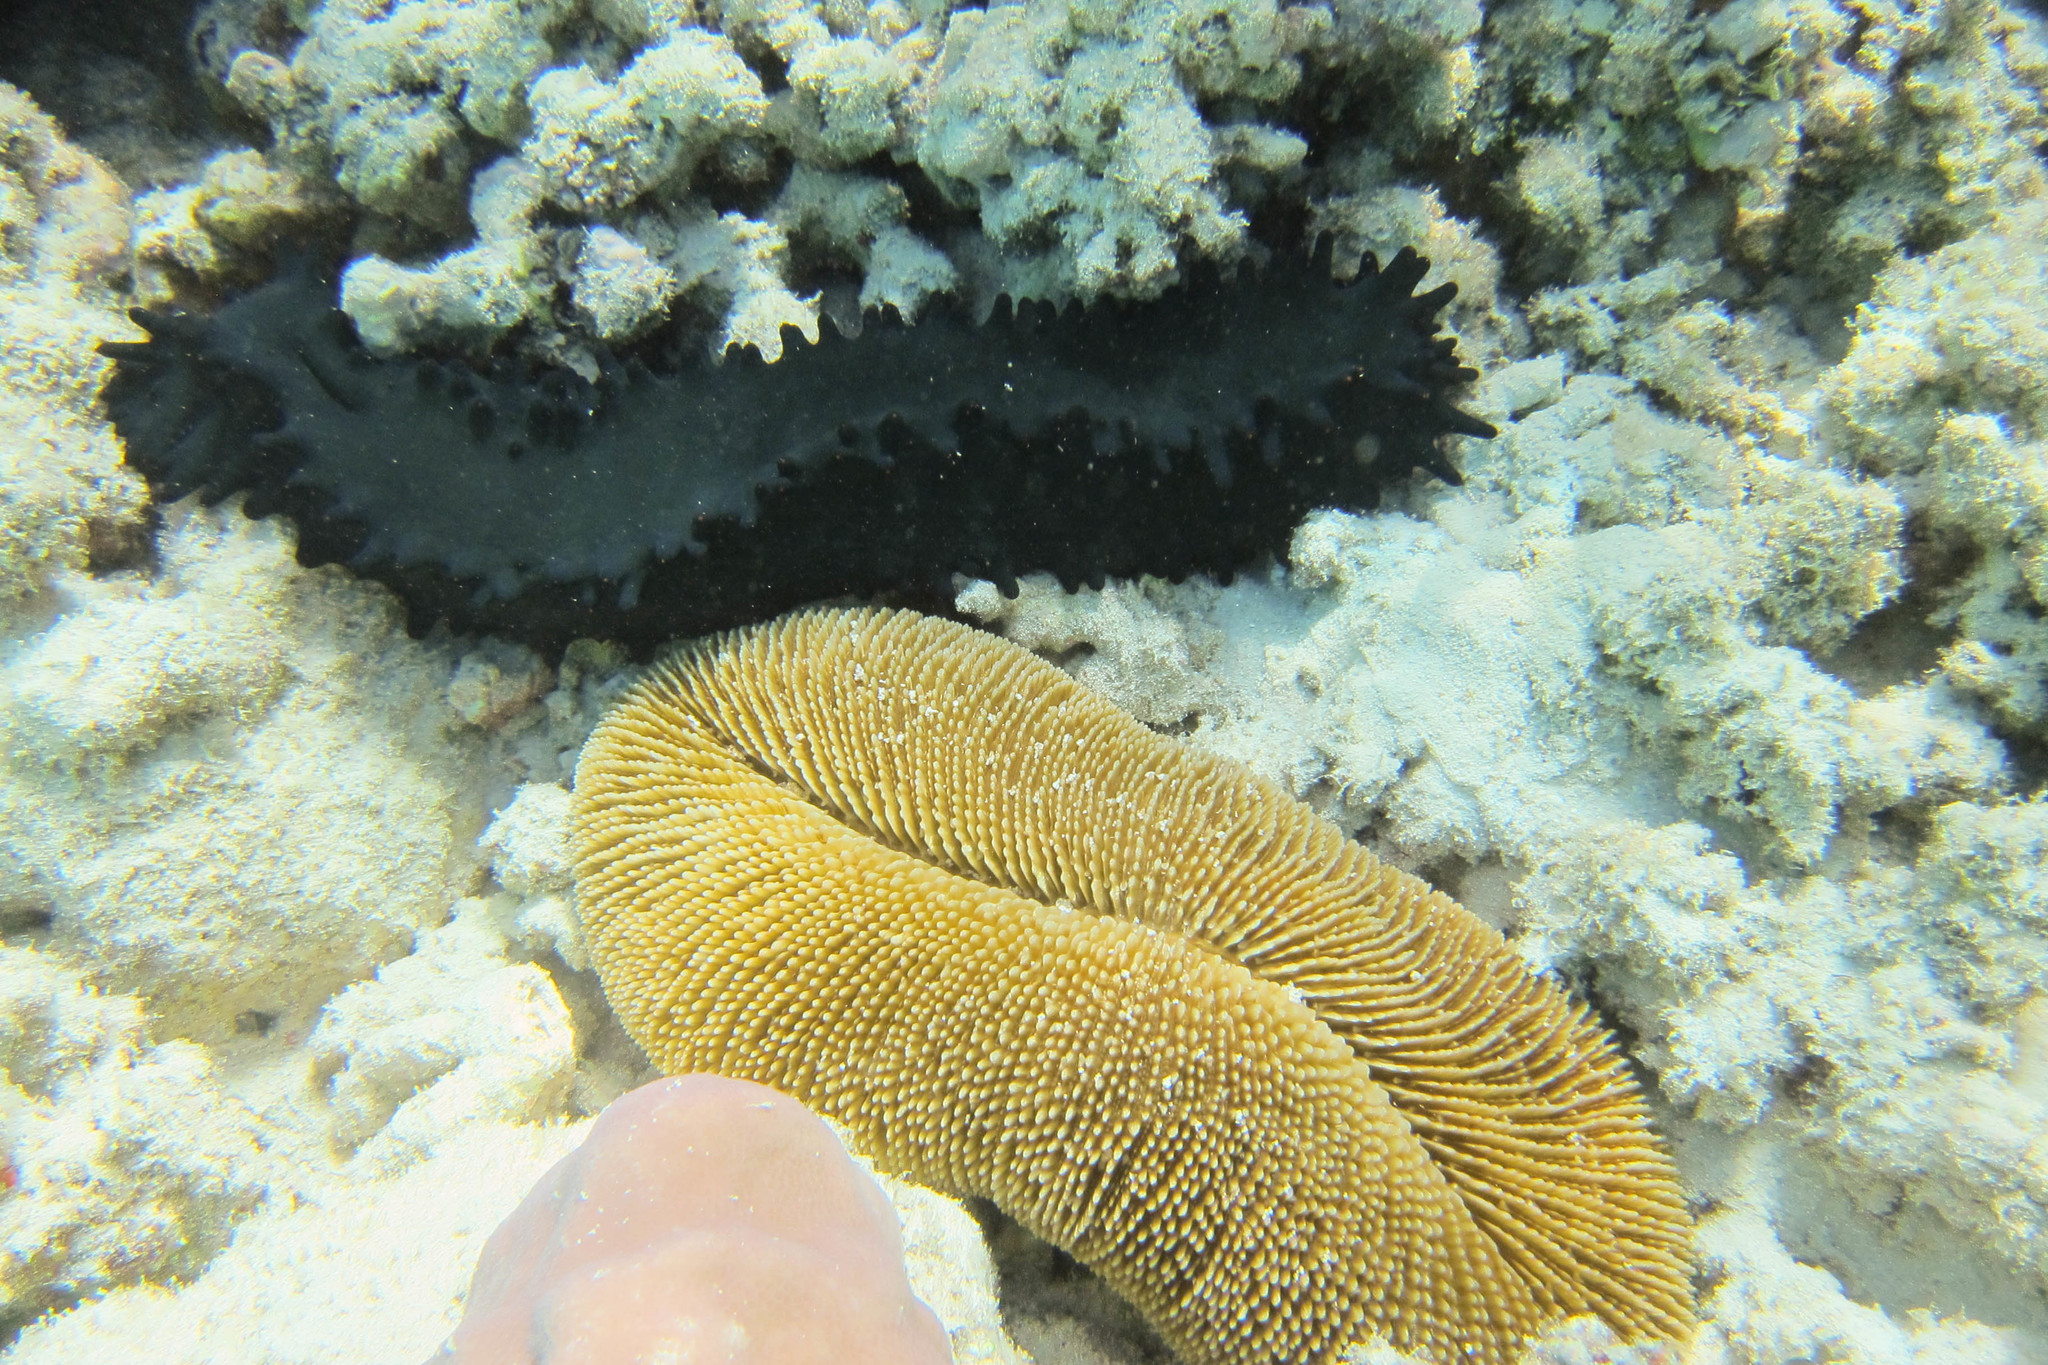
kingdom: Animalia
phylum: Echinodermata
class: Holothuroidea
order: Synallactida
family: Stichopodidae
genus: Stichopus
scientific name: Stichopus chloronotus
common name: Greenfish
